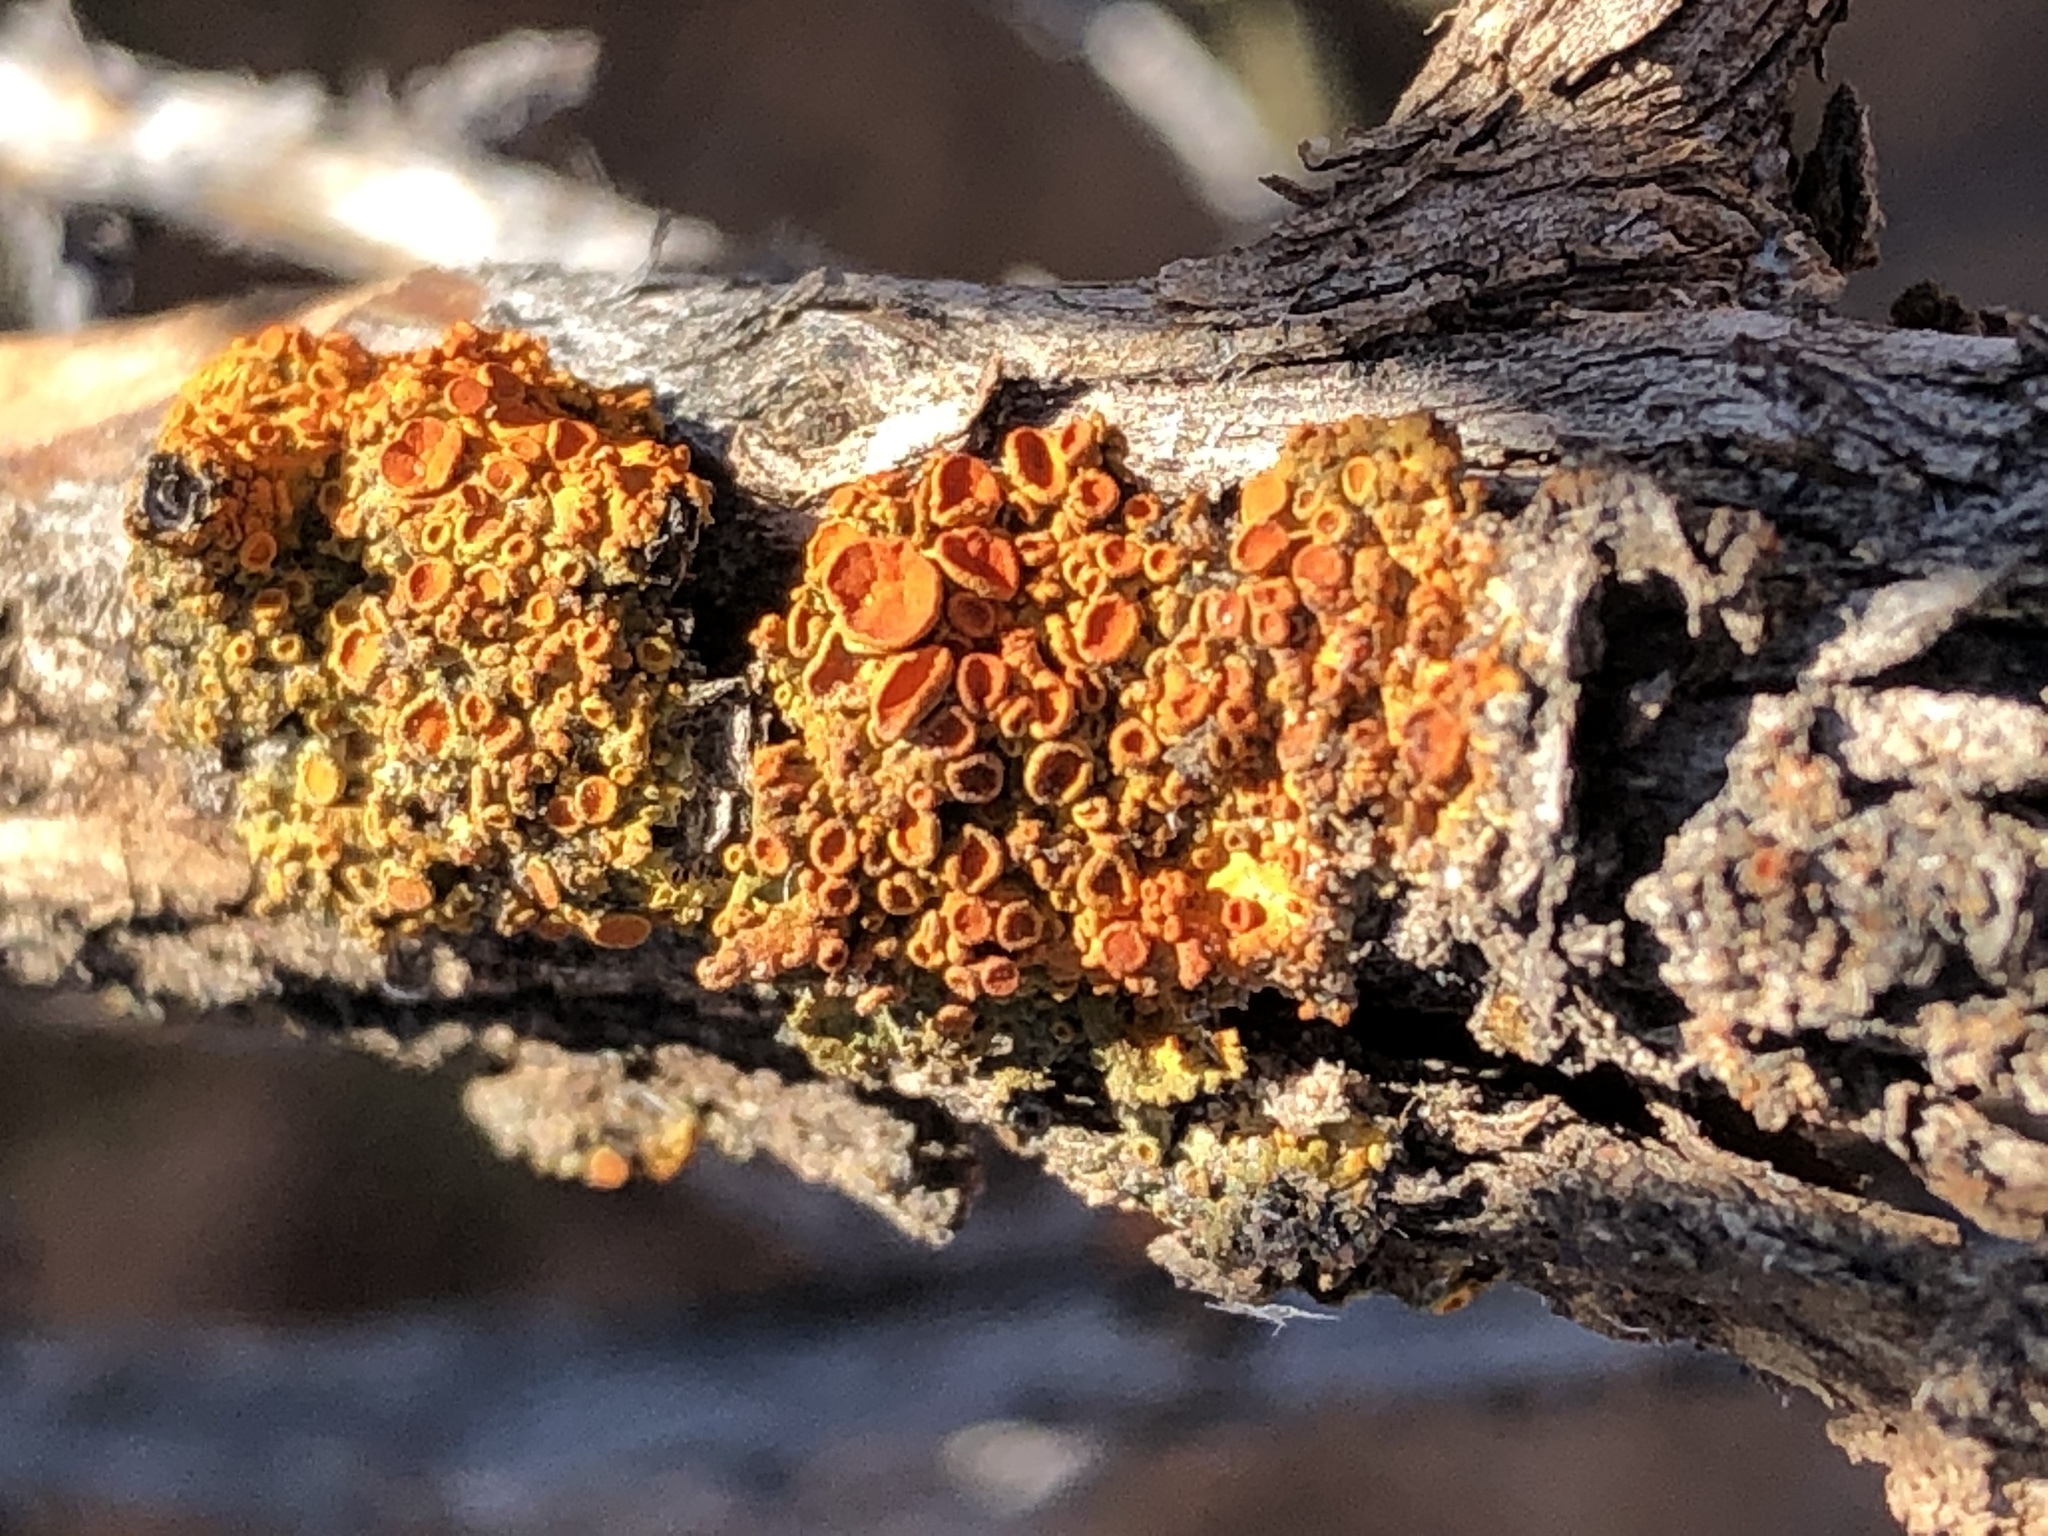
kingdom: Fungi
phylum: Ascomycota
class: Lecanoromycetes
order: Teloschistales
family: Teloschistaceae
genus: Polycauliona
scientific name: Polycauliona polycarpa
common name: Pin-cushion sunburst lichen
